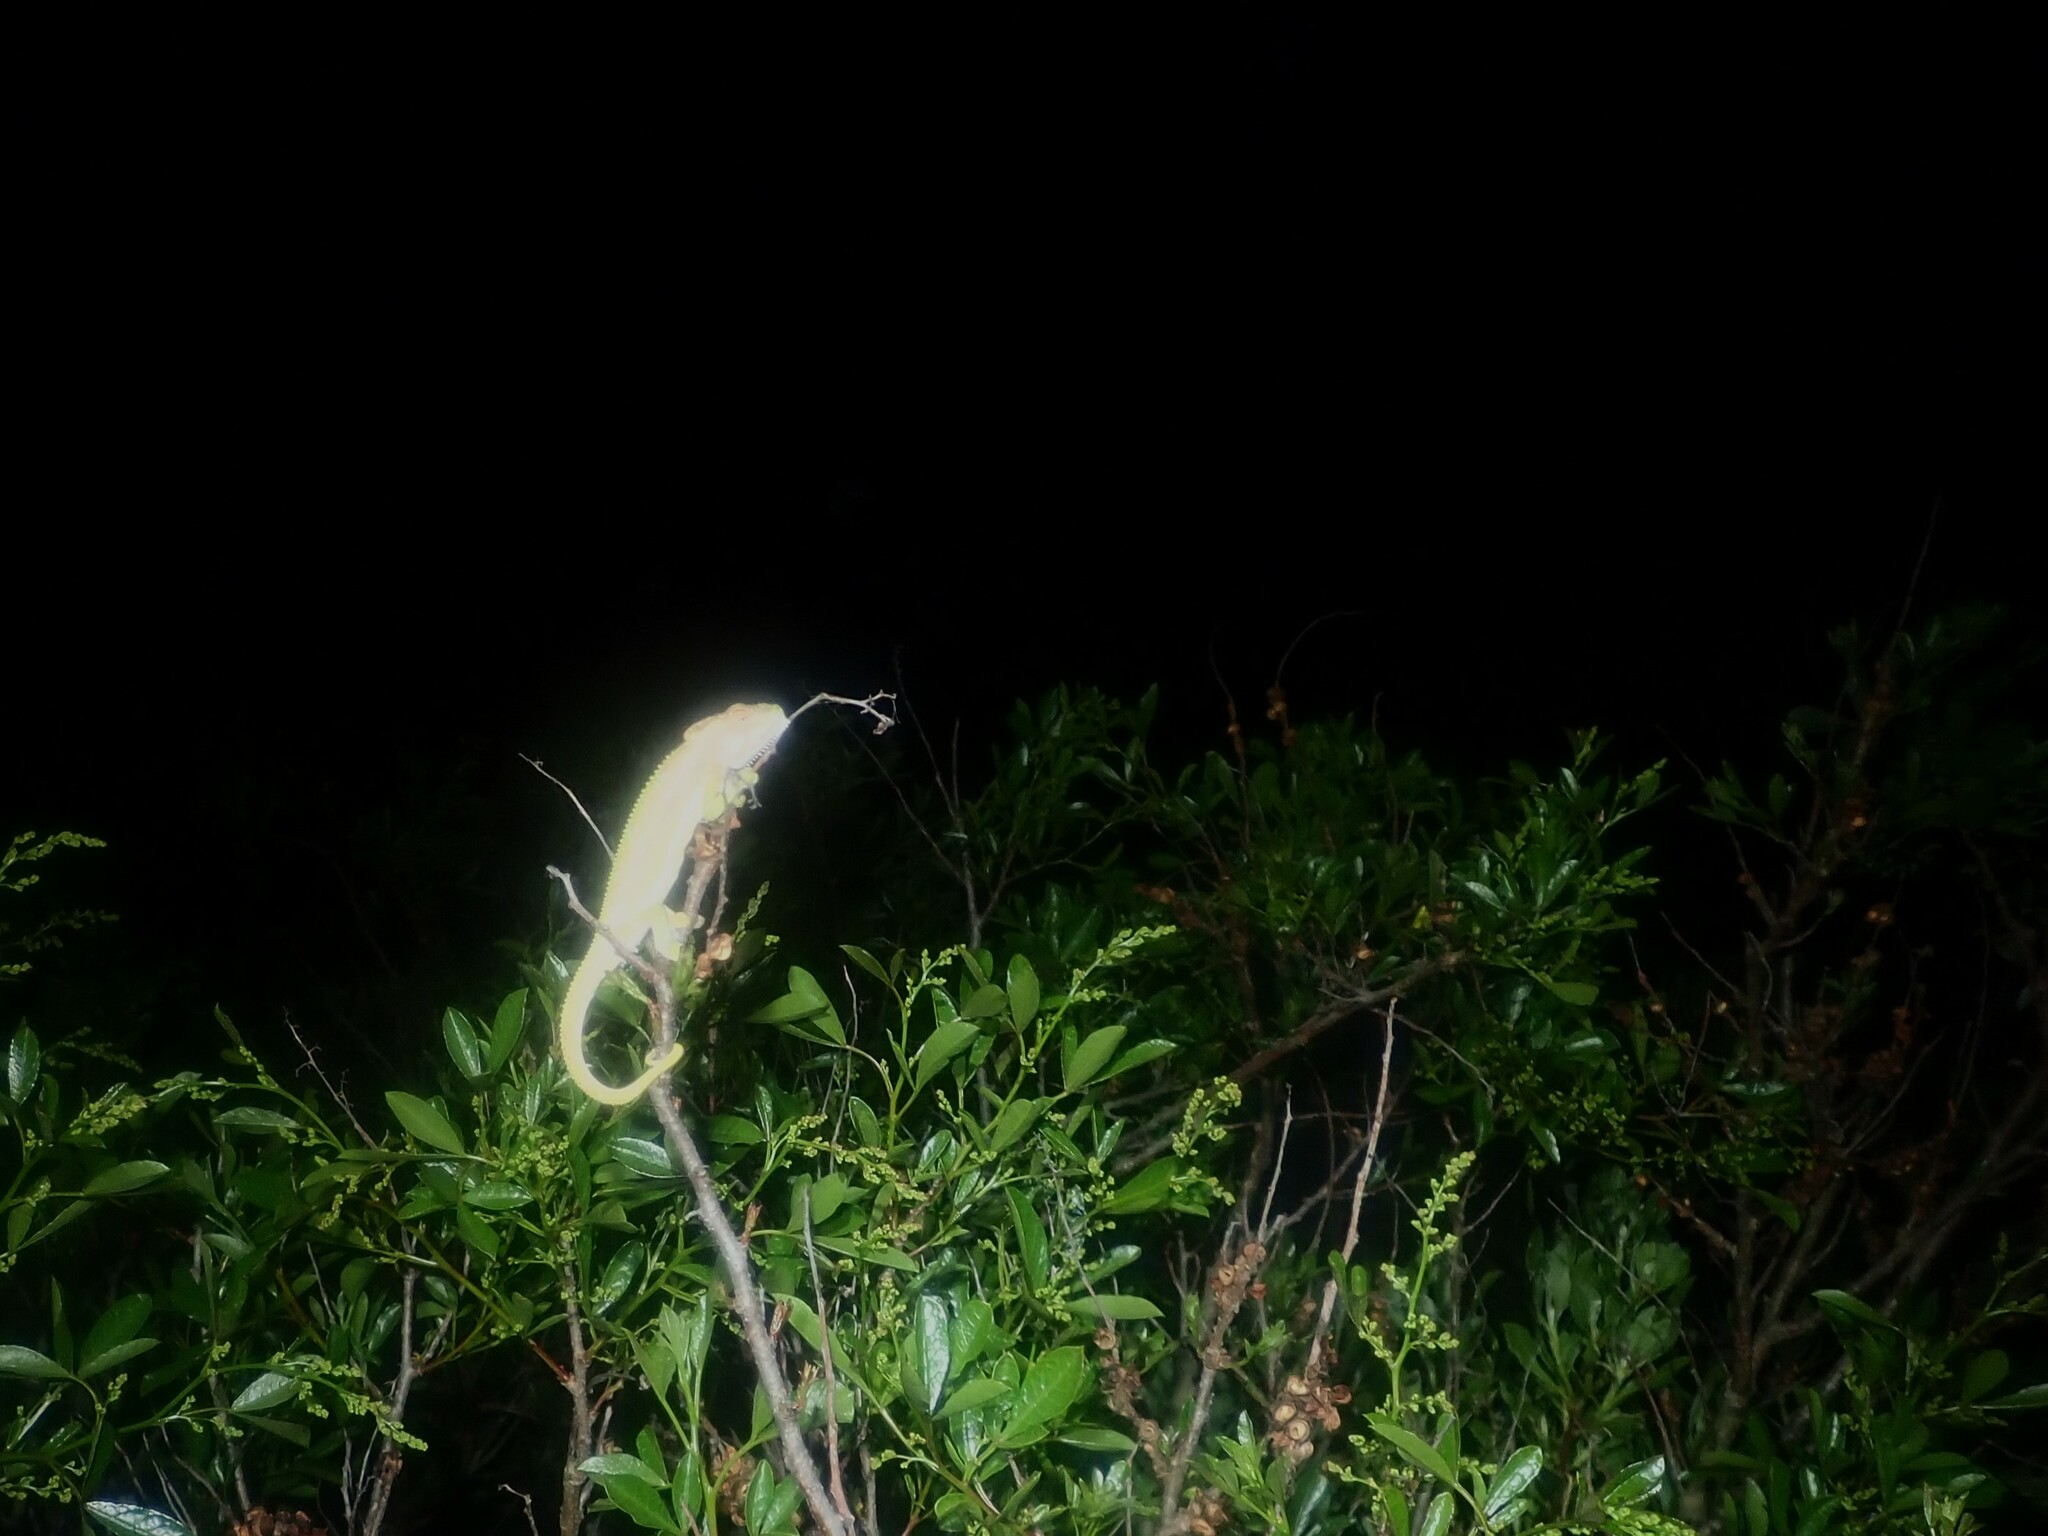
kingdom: Animalia
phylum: Chordata
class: Squamata
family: Chamaeleonidae
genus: Bradypodion
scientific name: Bradypodion pumilum
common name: Cape dwarf chameleon
